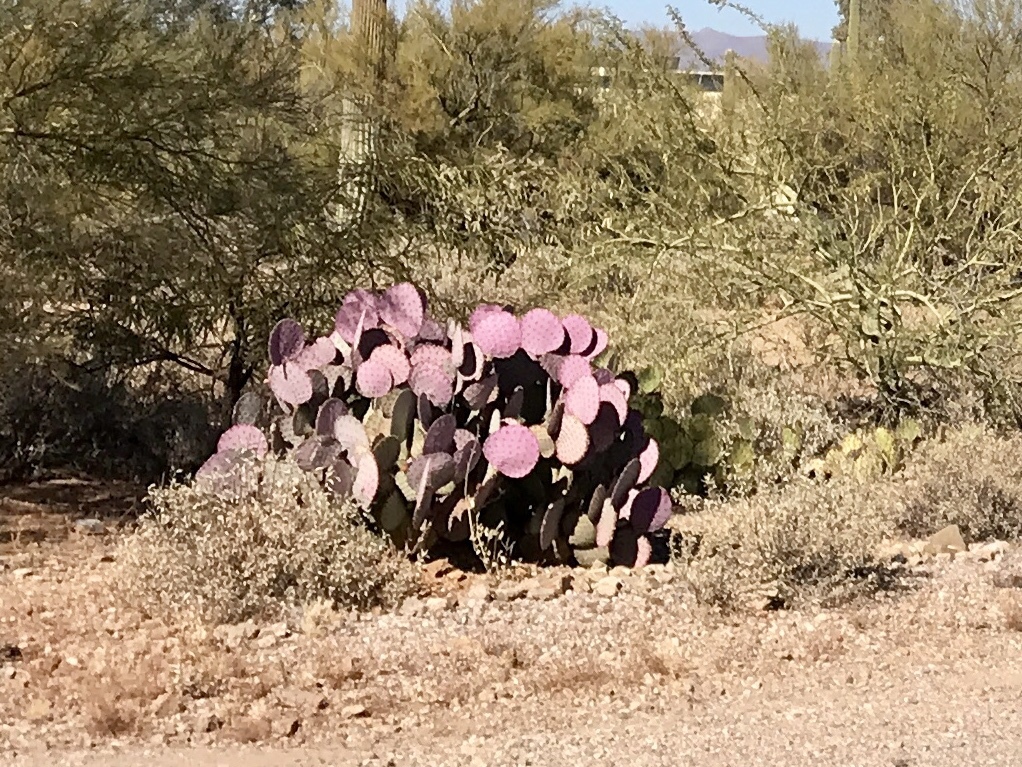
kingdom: Plantae
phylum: Tracheophyta
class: Magnoliopsida
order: Caryophyllales
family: Cactaceae
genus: Opuntia
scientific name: Opuntia gosseliniana
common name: Violet prickly-pear
